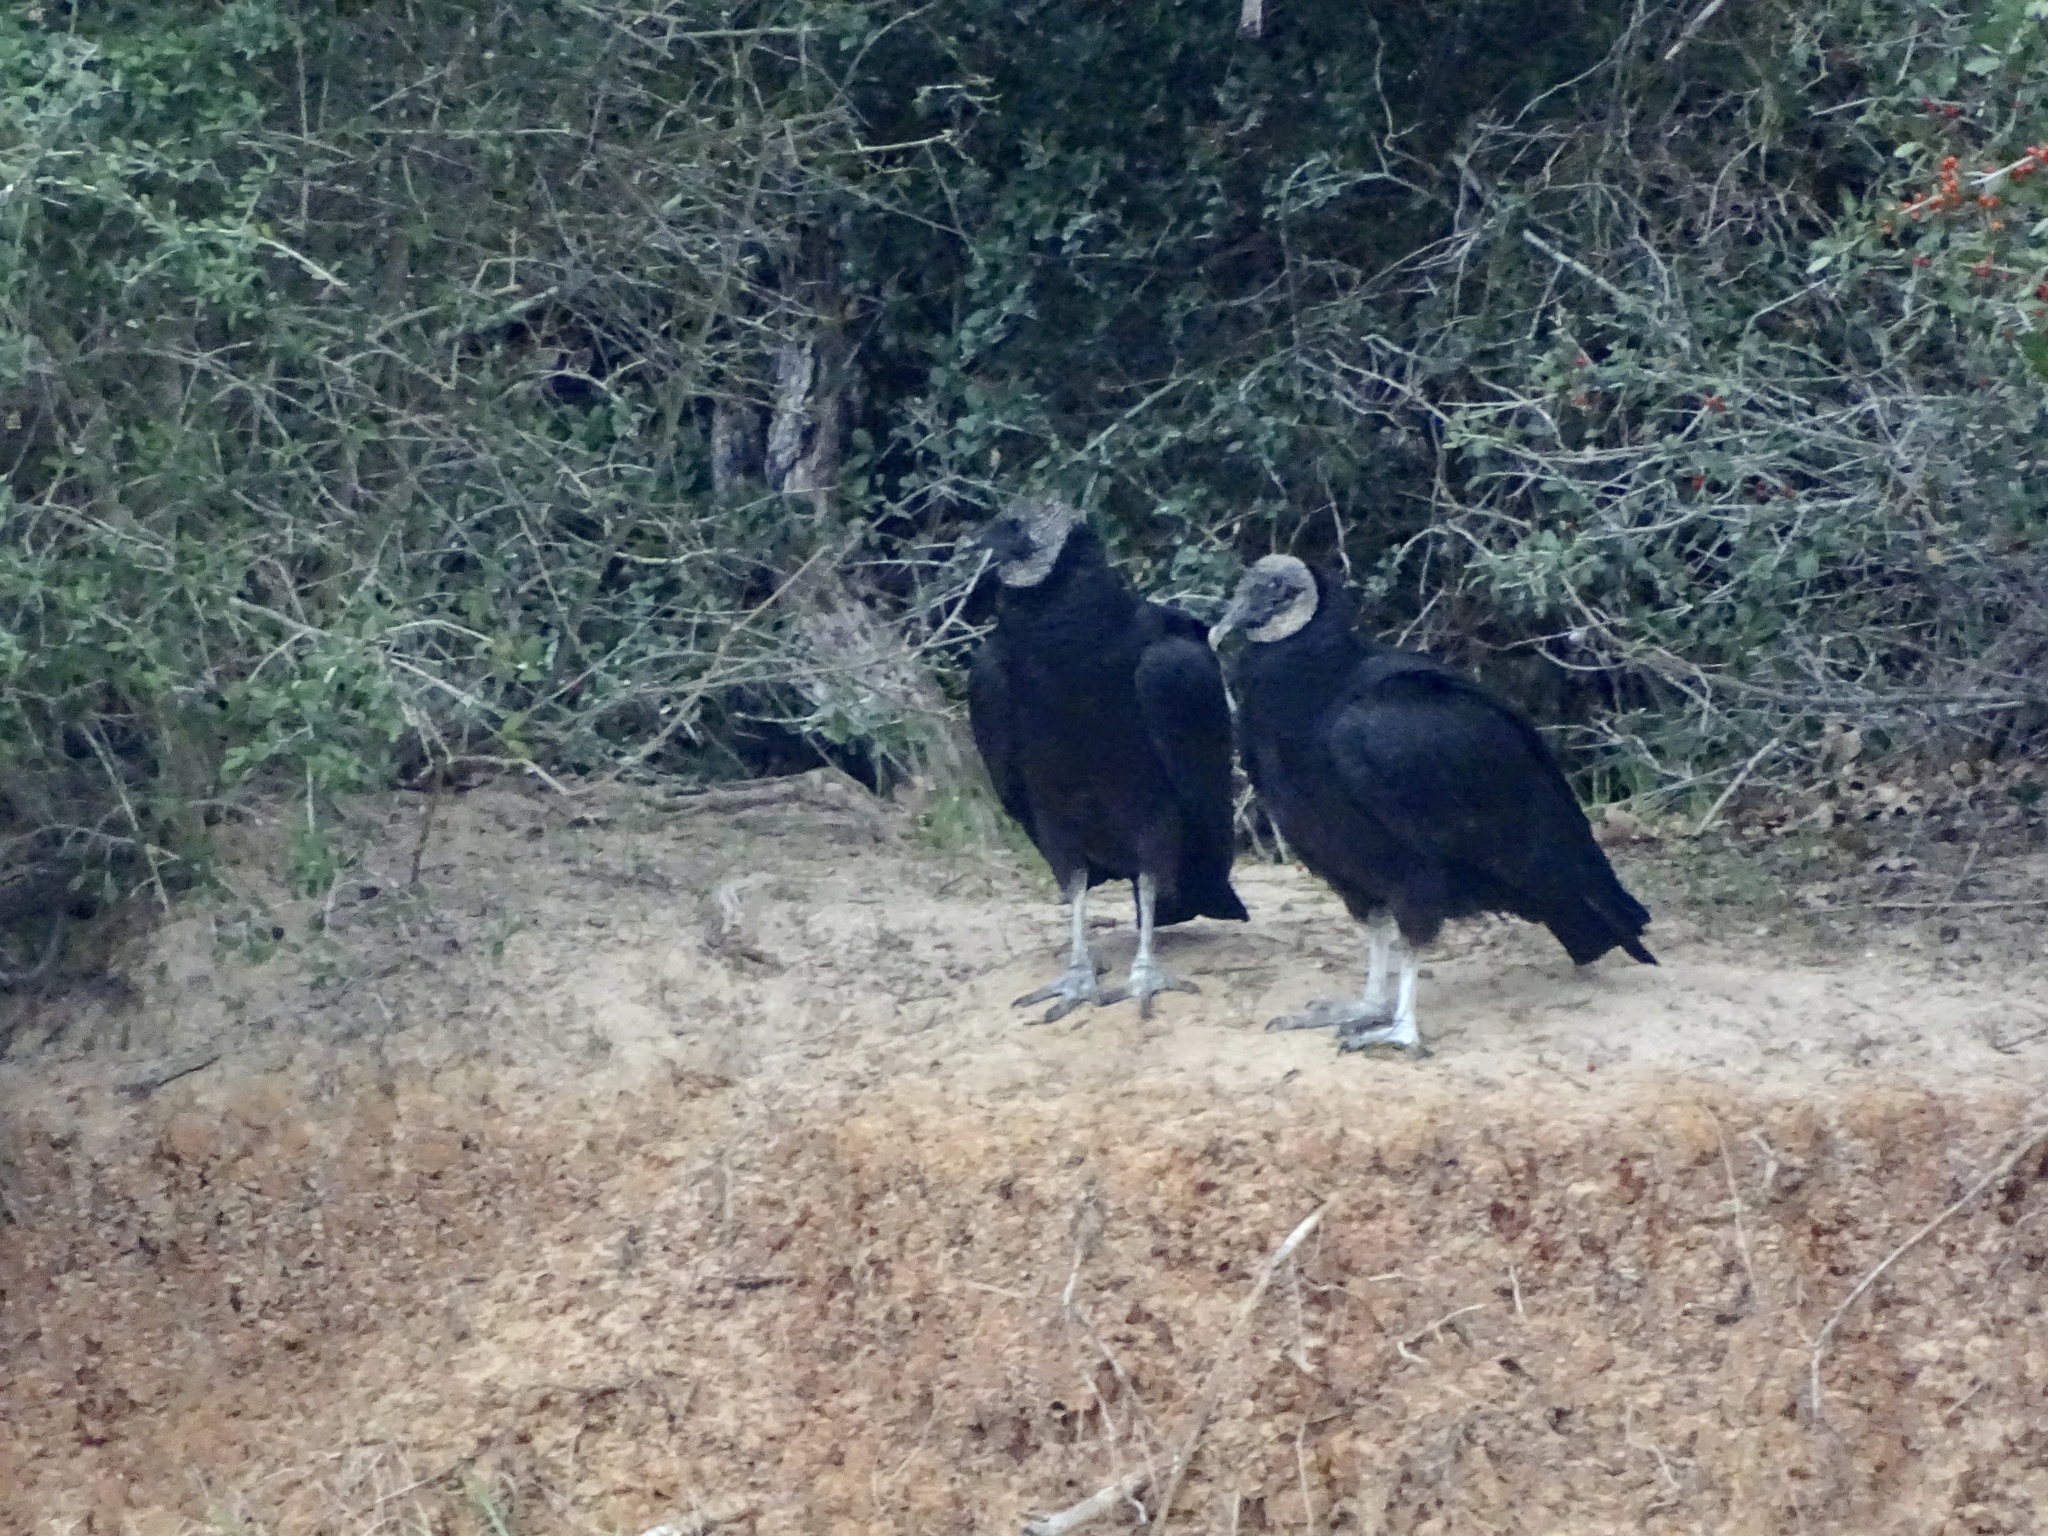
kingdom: Animalia
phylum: Chordata
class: Aves
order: Accipitriformes
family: Cathartidae
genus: Coragyps
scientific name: Coragyps atratus
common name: Black vulture
